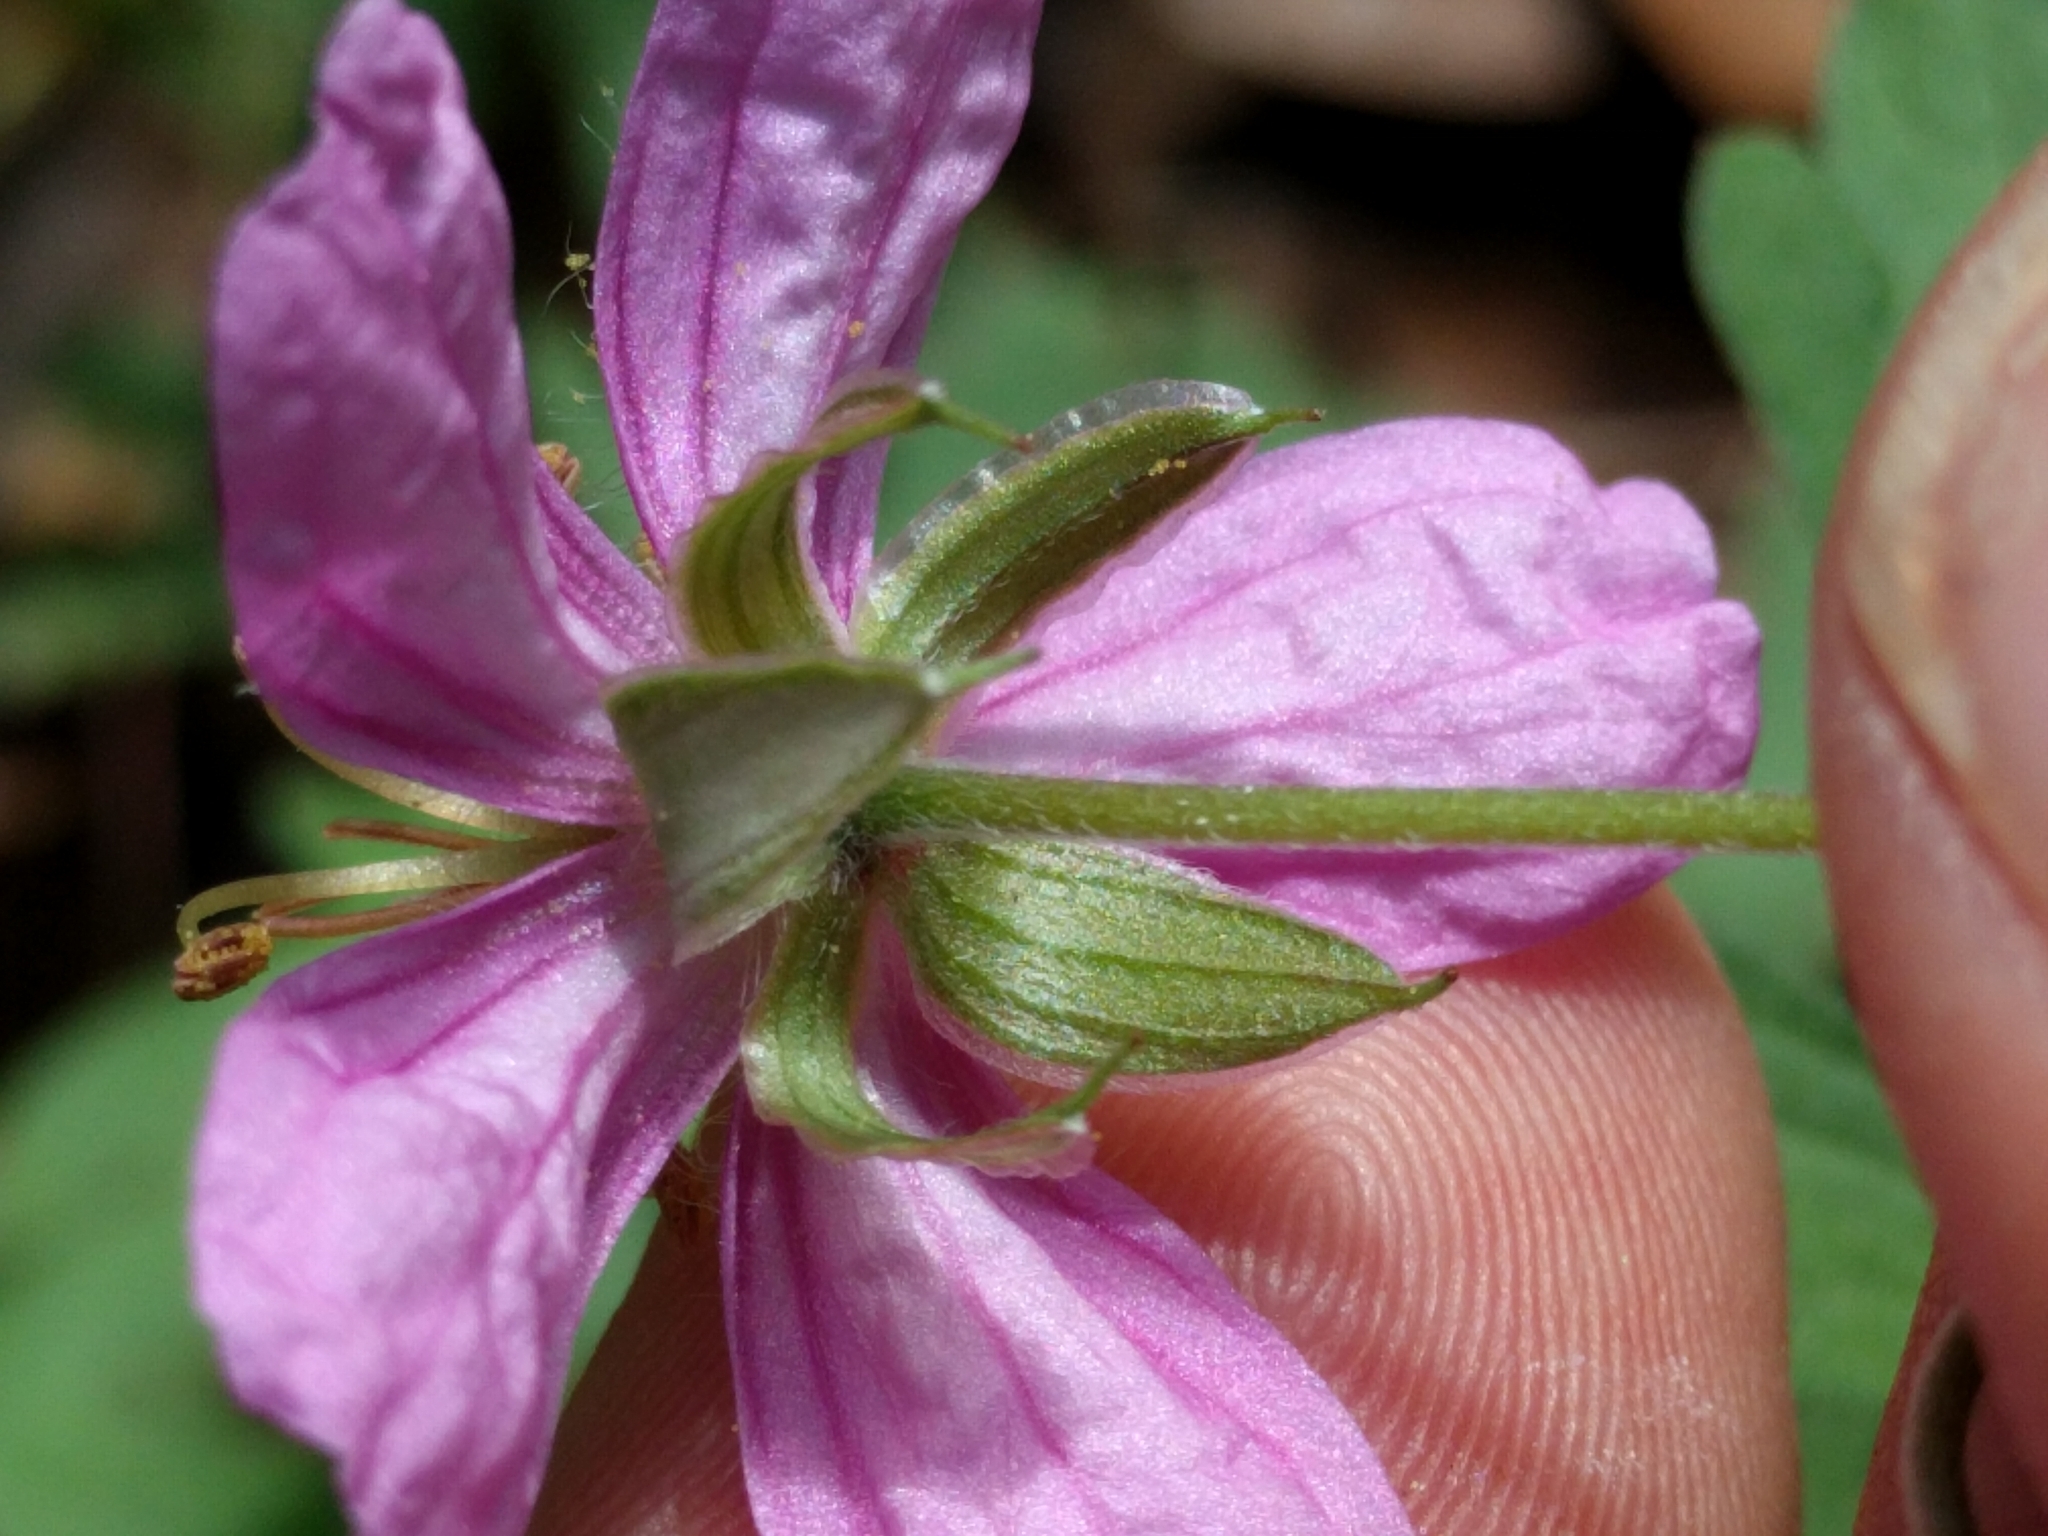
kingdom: Plantae
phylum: Tracheophyta
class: Magnoliopsida
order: Geraniales
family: Geraniaceae
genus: Geranium
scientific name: Geranium caespitosum
